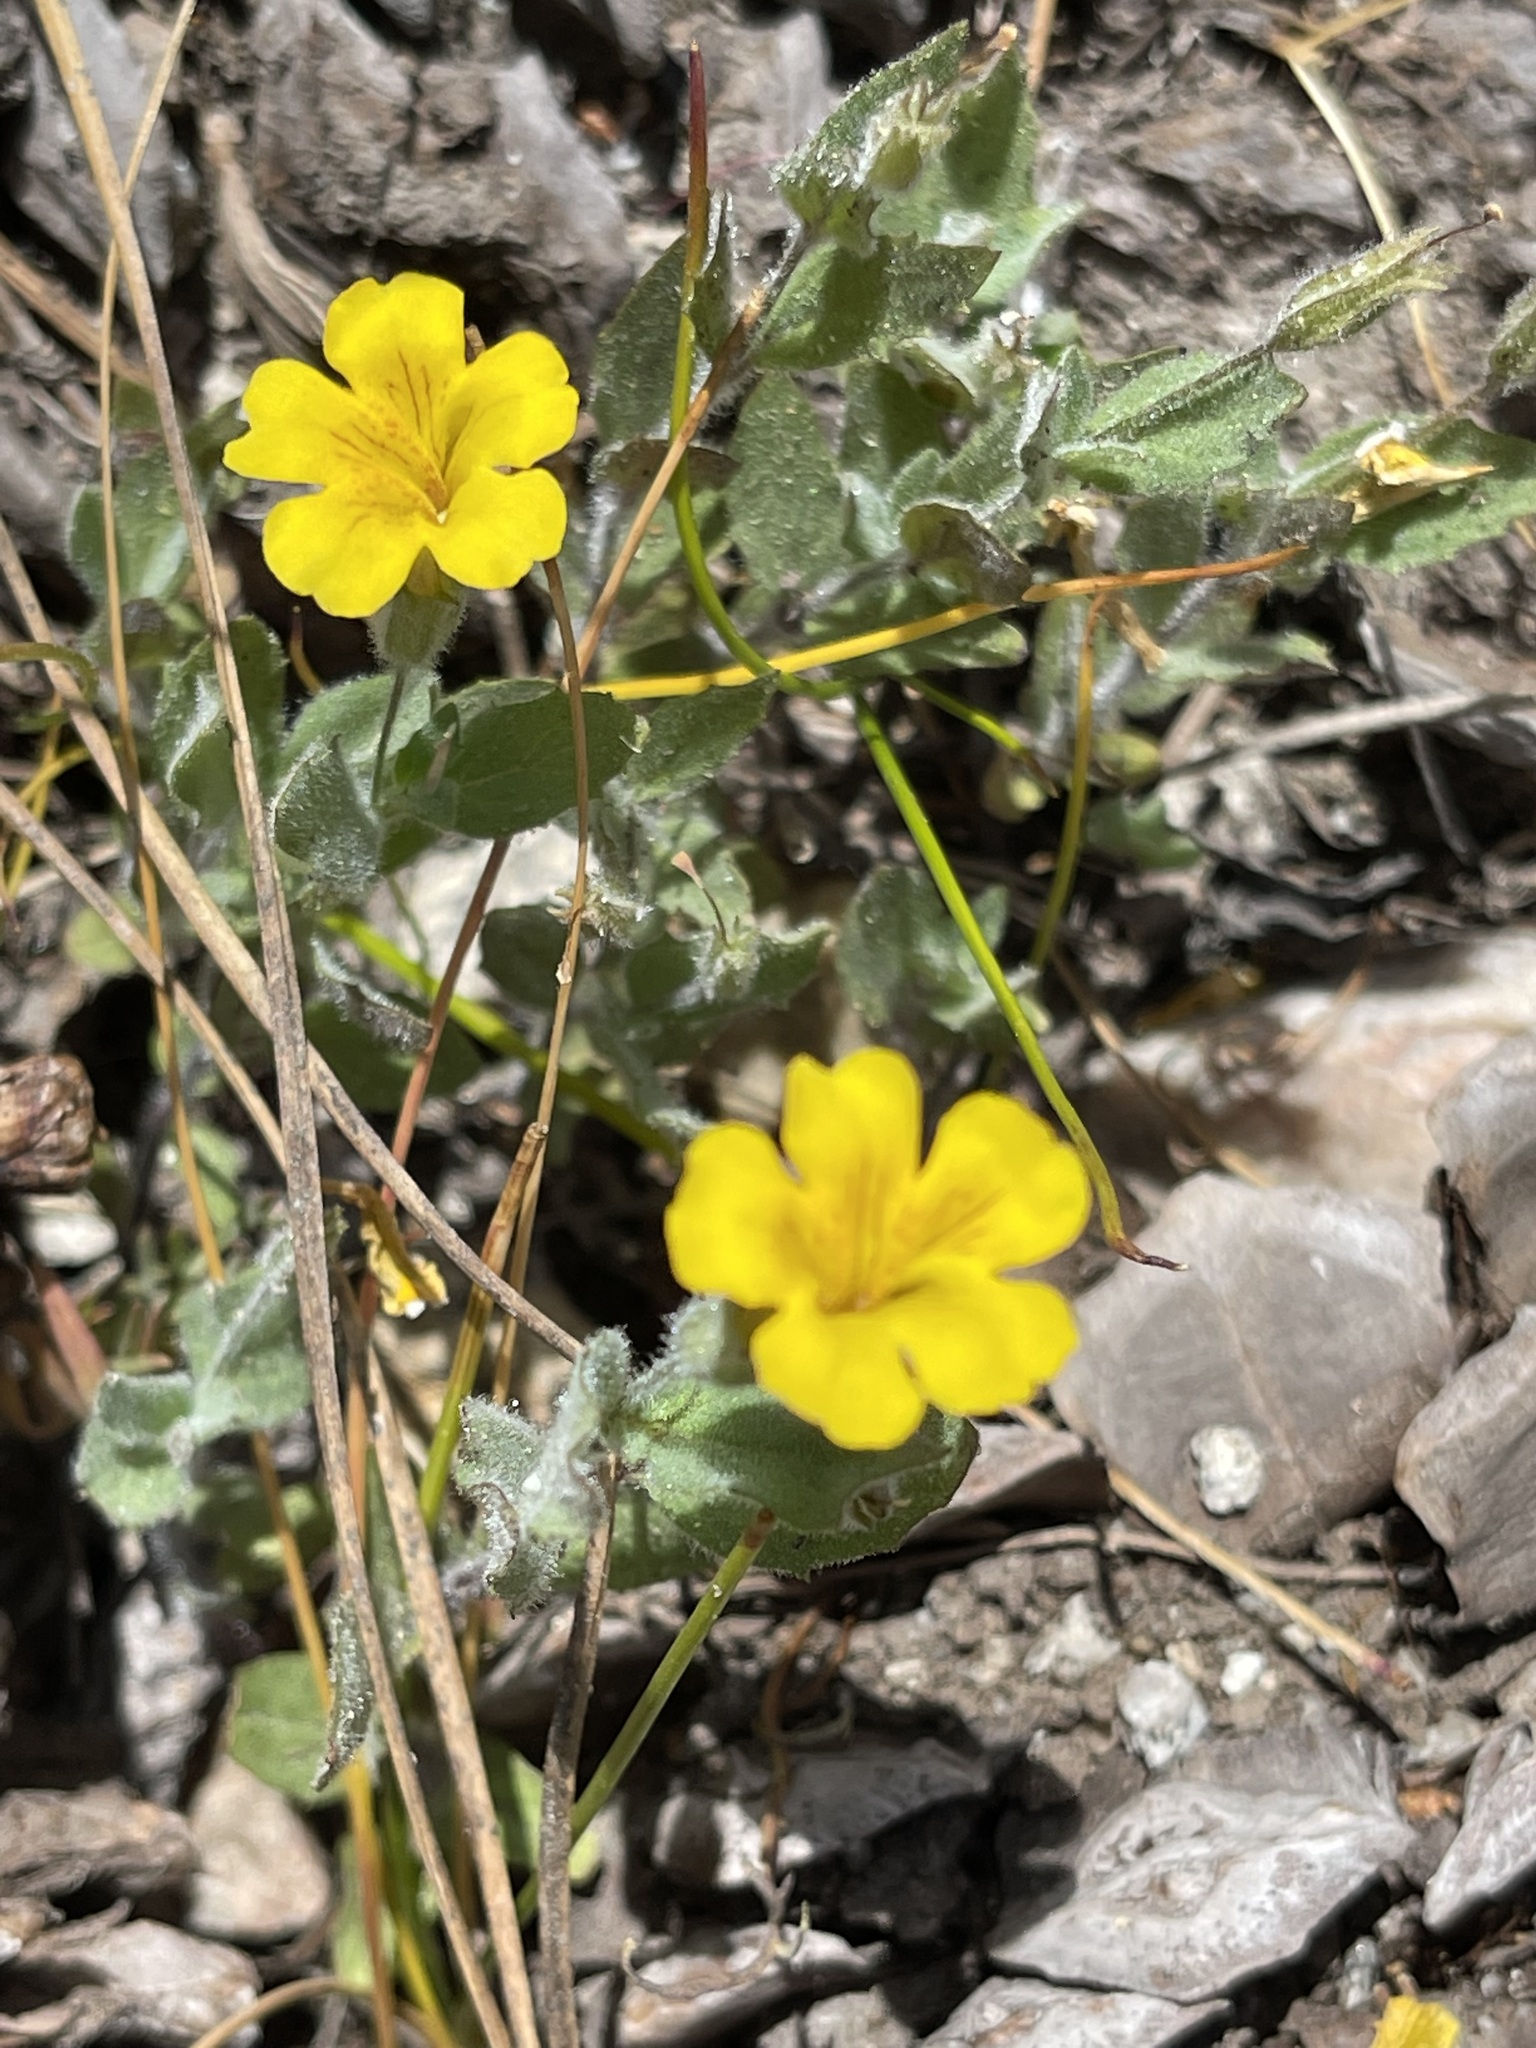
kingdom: Plantae
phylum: Tracheophyta
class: Magnoliopsida
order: Lamiales
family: Phrymaceae
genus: Erythranthe
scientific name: Erythranthe moschata
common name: Muskflower
